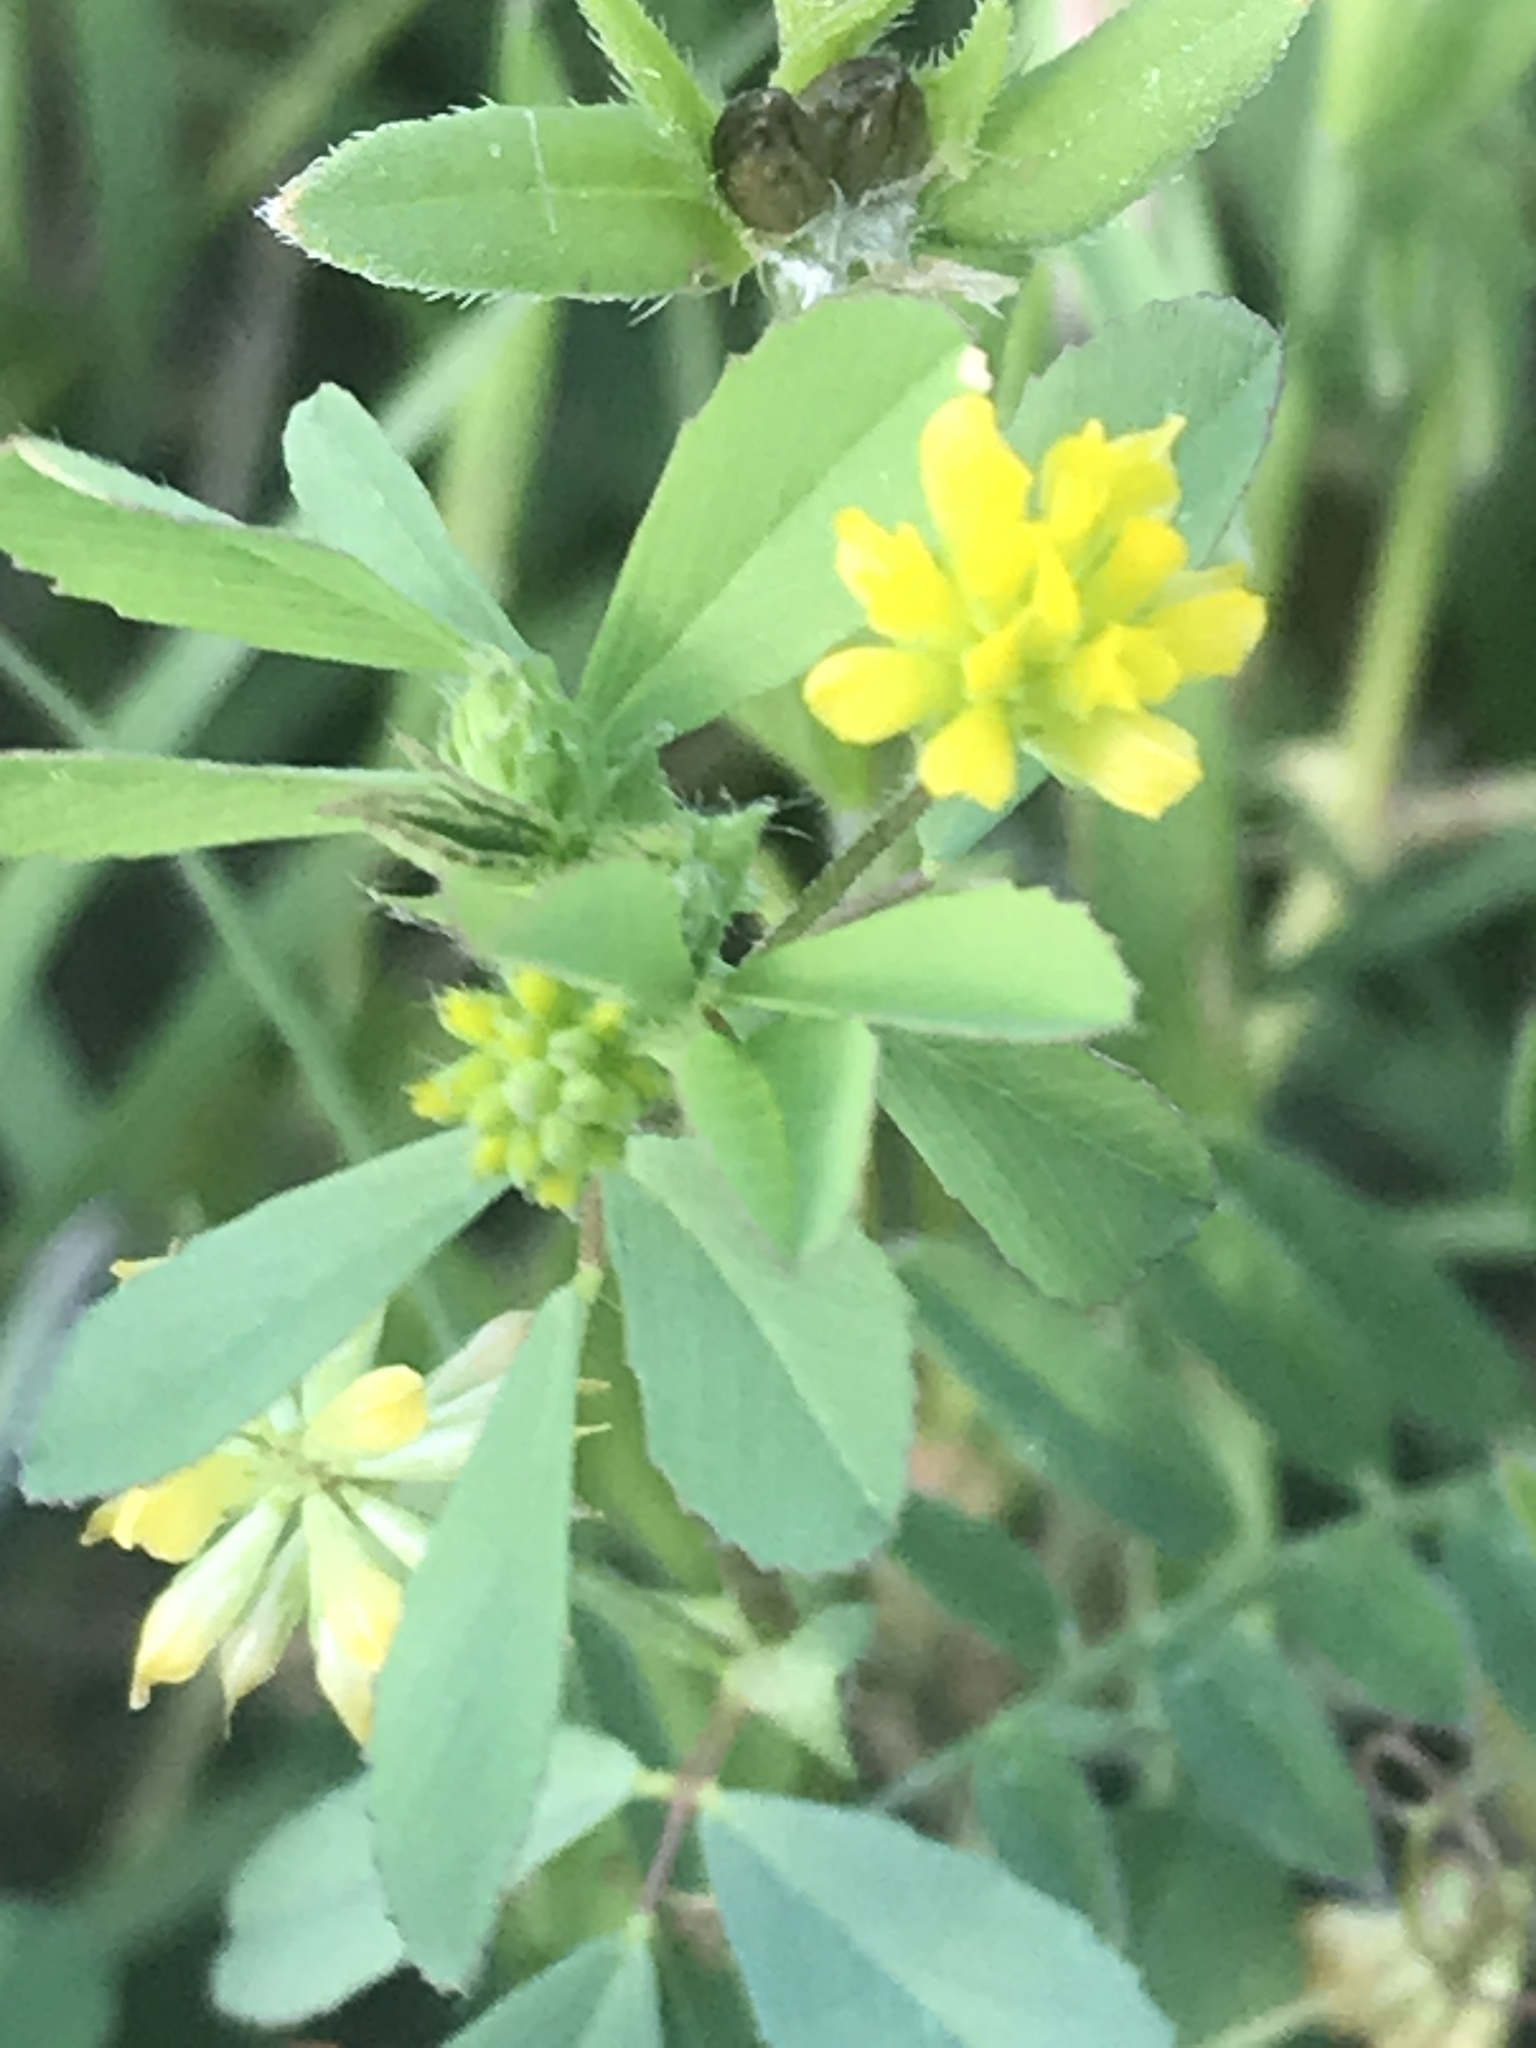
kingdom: Plantae
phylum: Tracheophyta
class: Magnoliopsida
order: Fabales
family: Fabaceae
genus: Trifolium
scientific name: Trifolium dubium
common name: Suckling clover
